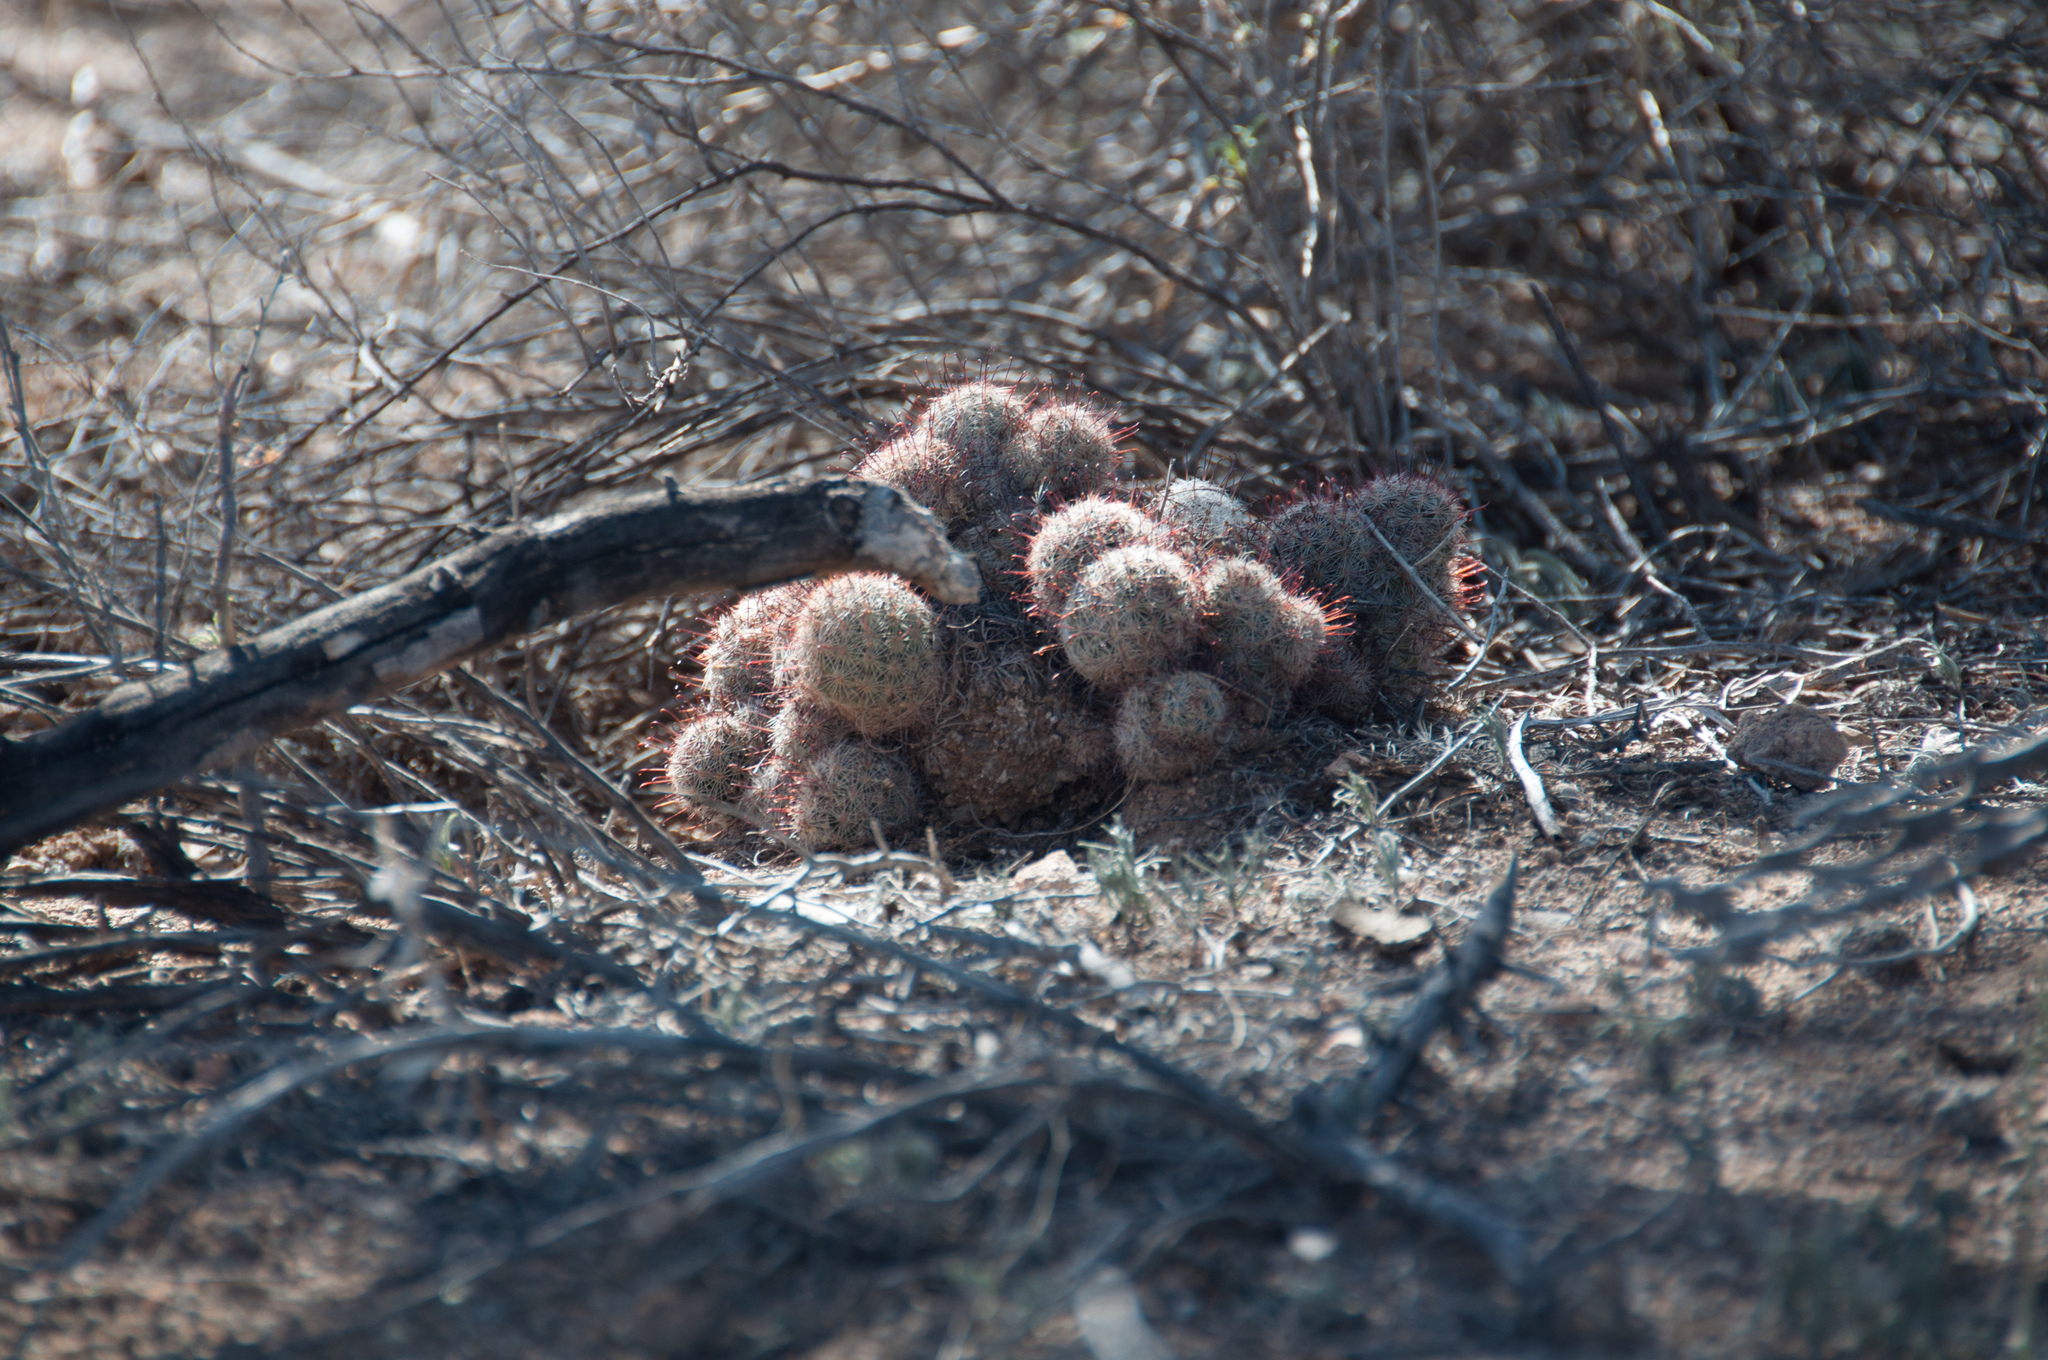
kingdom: Plantae
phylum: Tracheophyta
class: Magnoliopsida
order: Caryophyllales
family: Cactaceae
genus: Cochemiea
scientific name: Cochemiea grahamii
